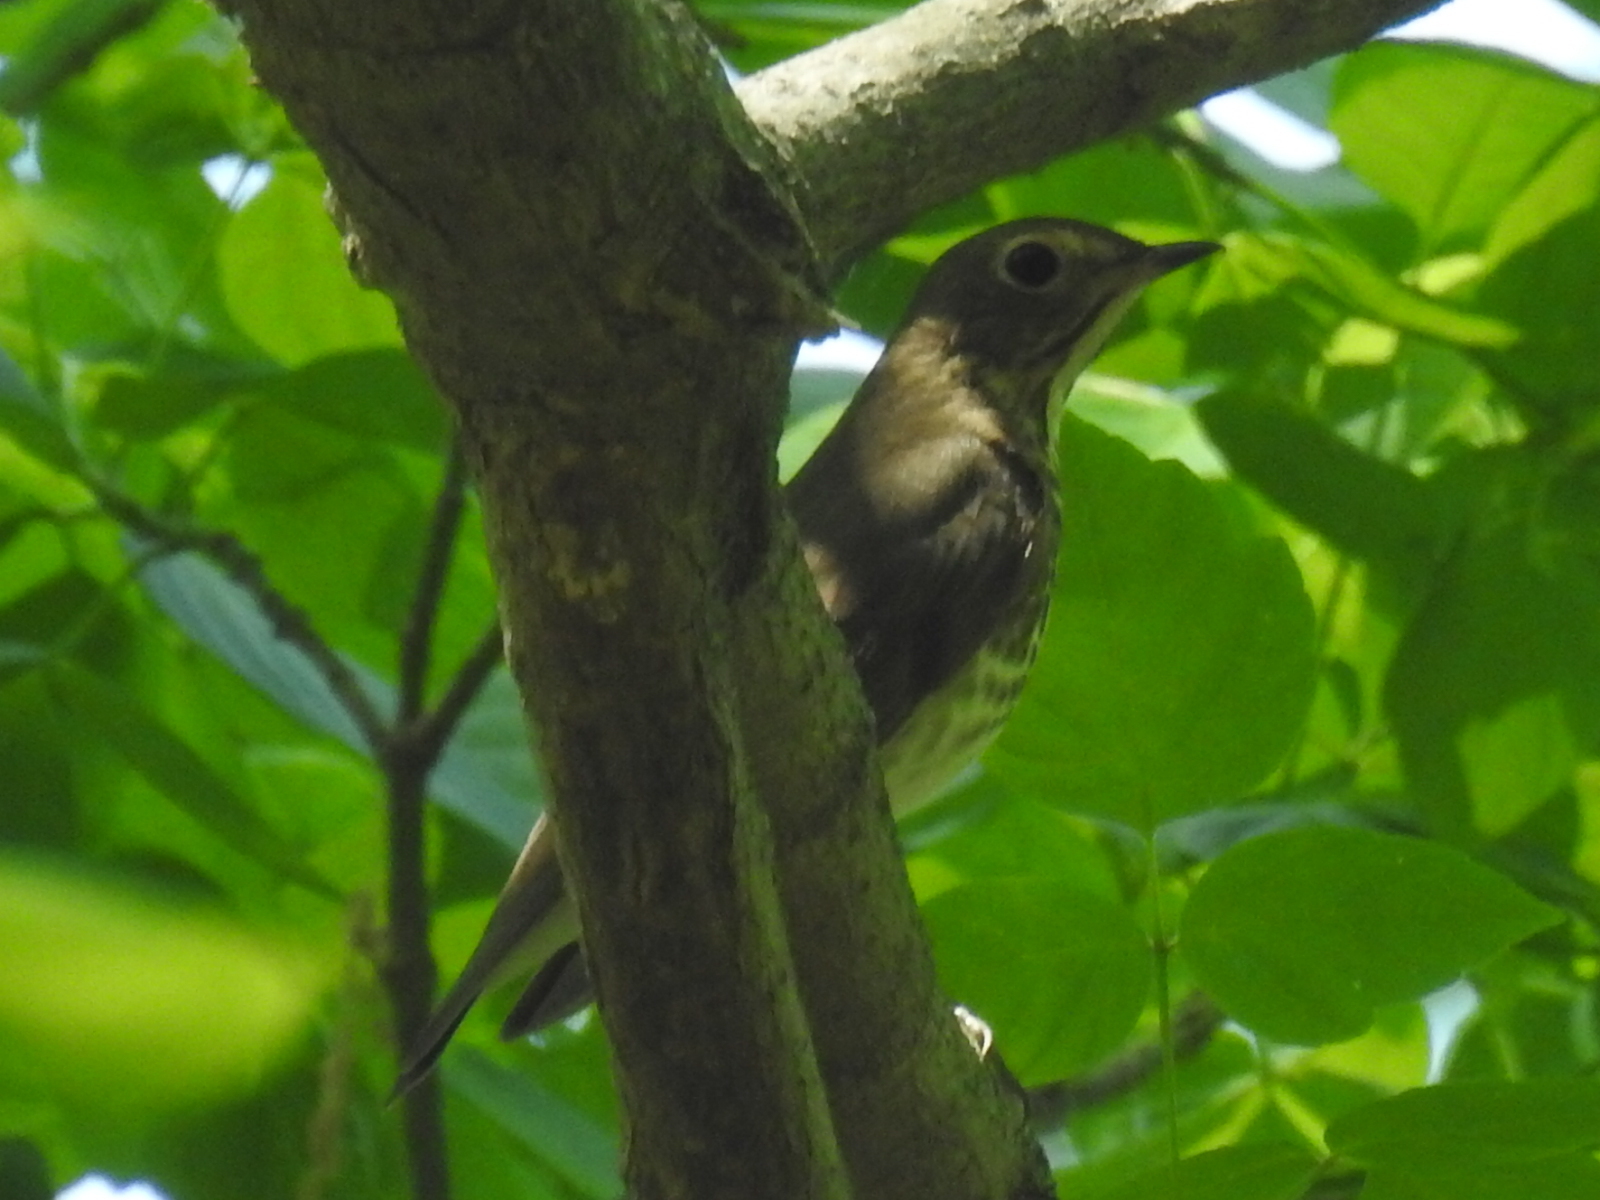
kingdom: Animalia
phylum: Chordata
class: Aves
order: Passeriformes
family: Turdidae
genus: Catharus
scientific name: Catharus ustulatus
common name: Swainson's thrush
